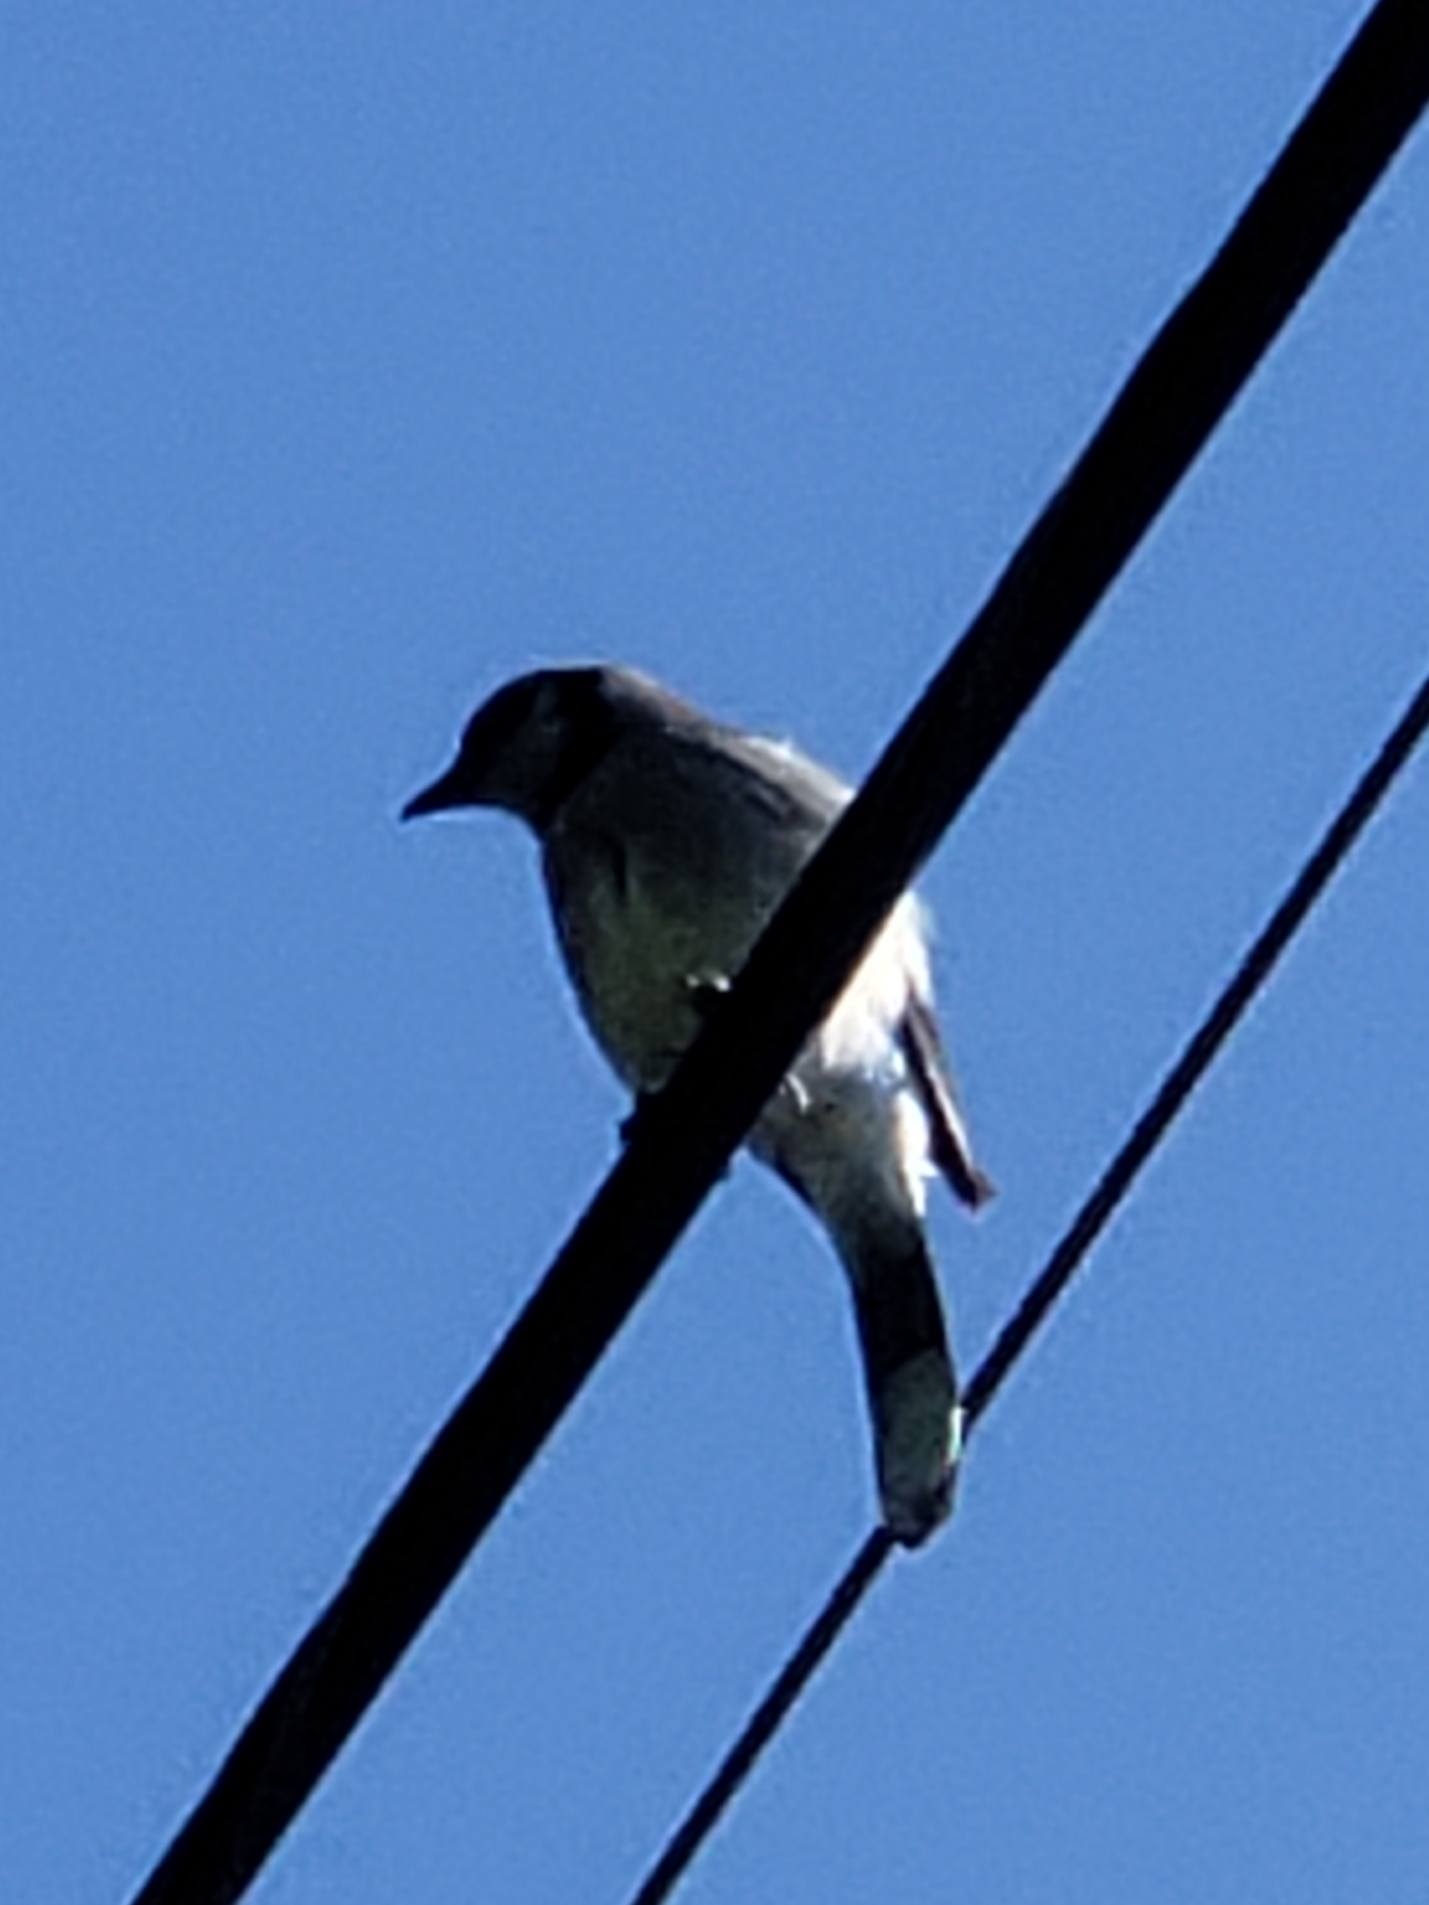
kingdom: Animalia
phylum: Chordata
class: Aves
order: Passeriformes
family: Corvidae
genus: Cyanocitta
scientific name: Cyanocitta cristata
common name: Blue jay
